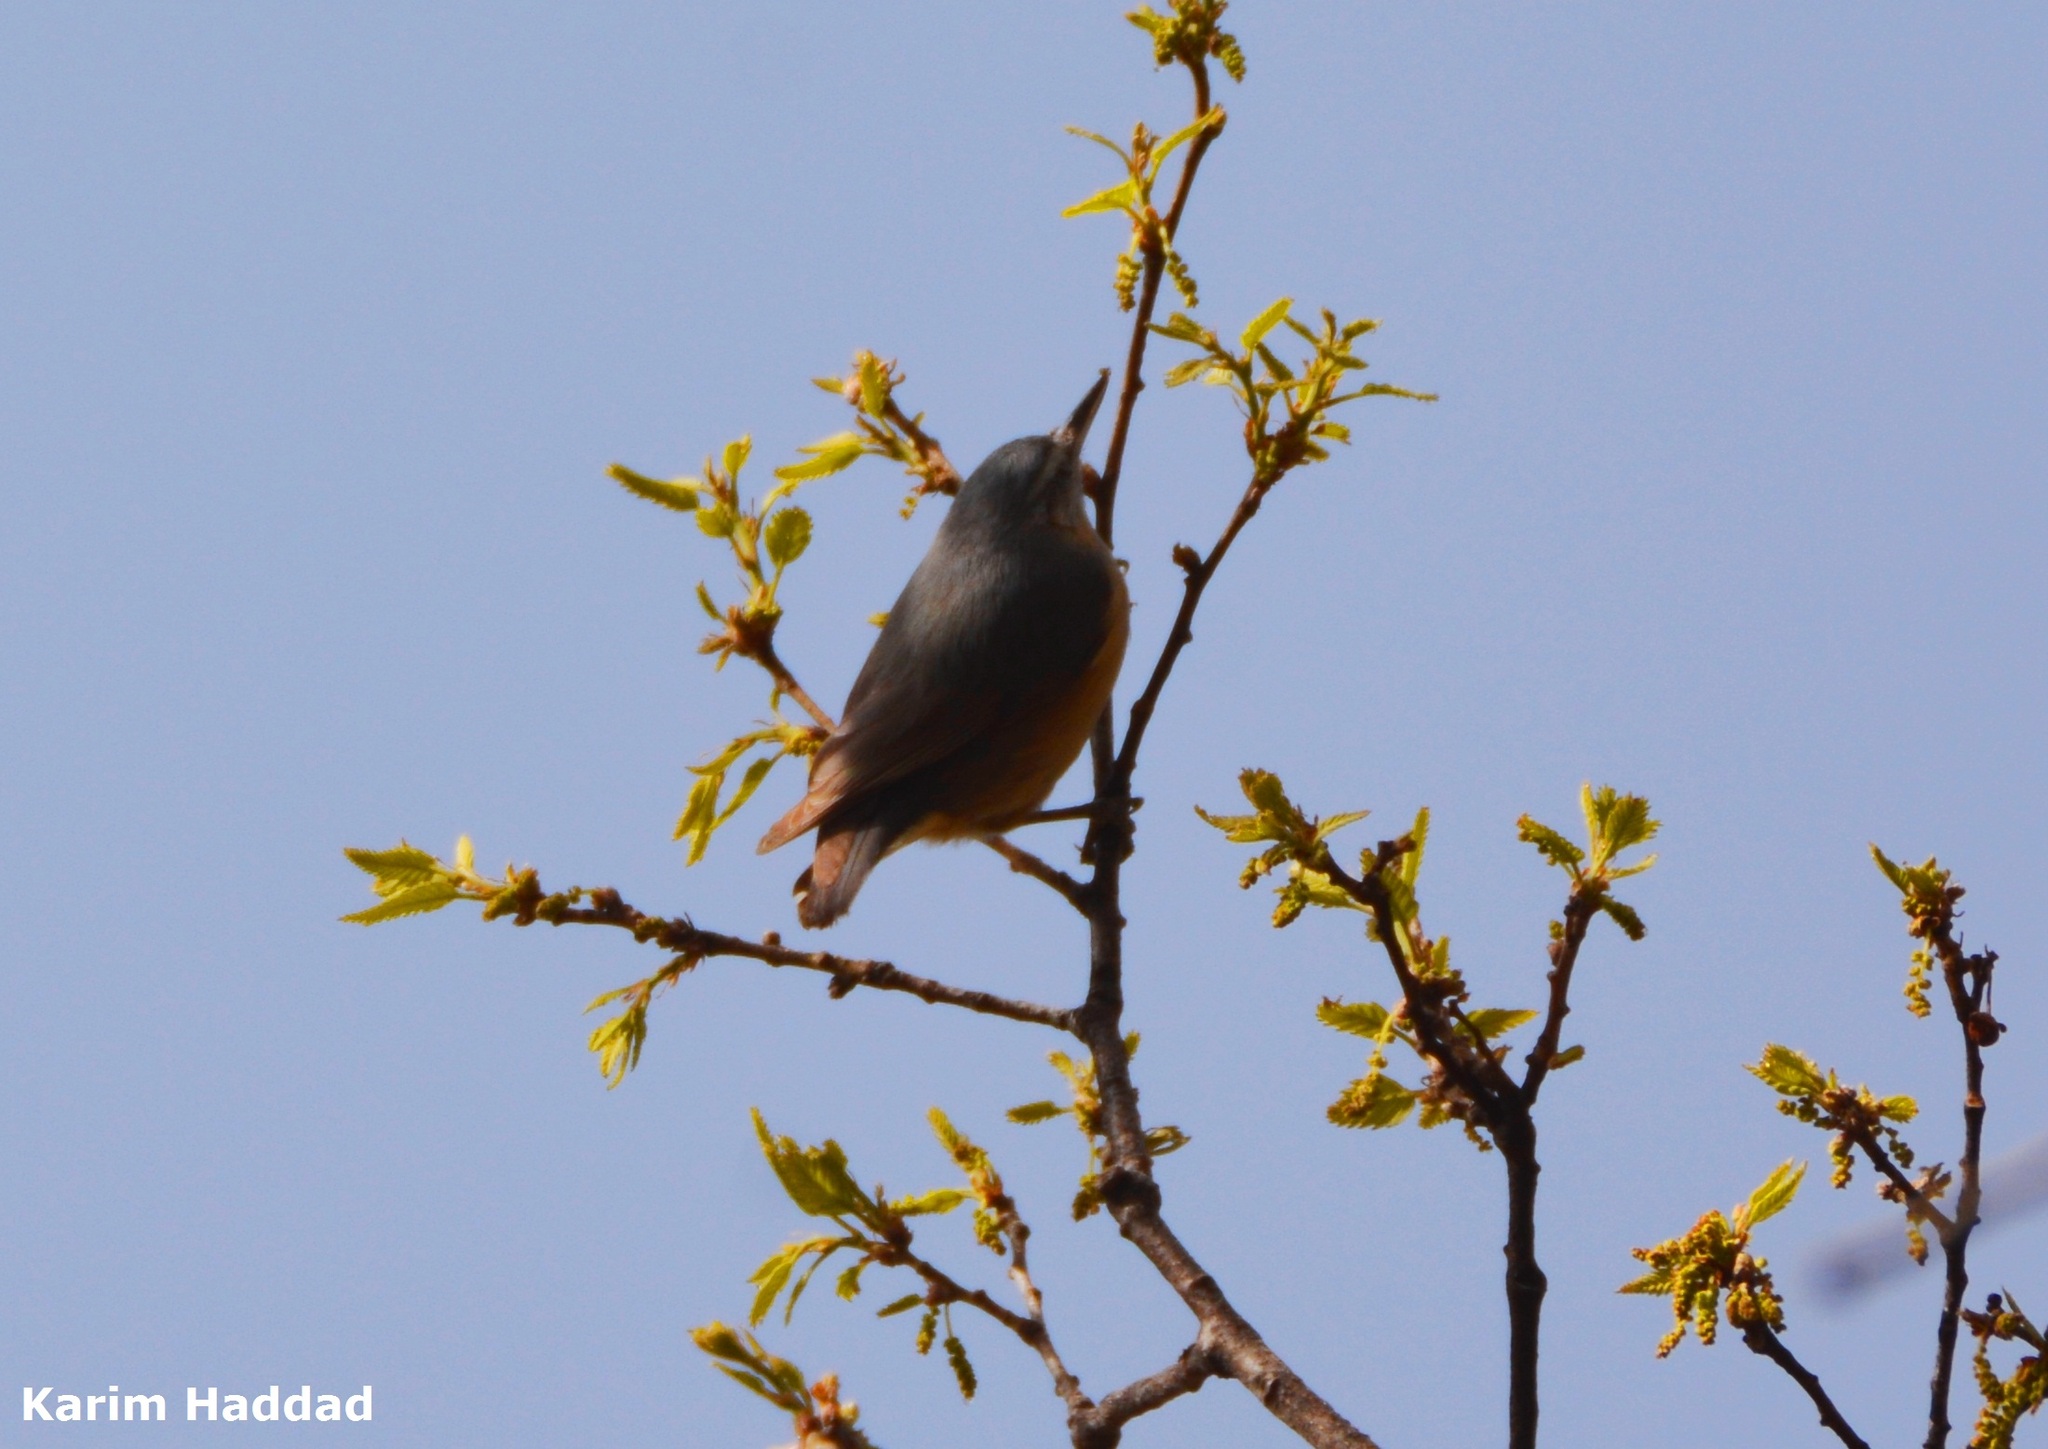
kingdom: Animalia
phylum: Chordata
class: Aves
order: Passeriformes
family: Sittidae
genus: Sitta
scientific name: Sitta ledanti
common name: Algerian nuthatch
